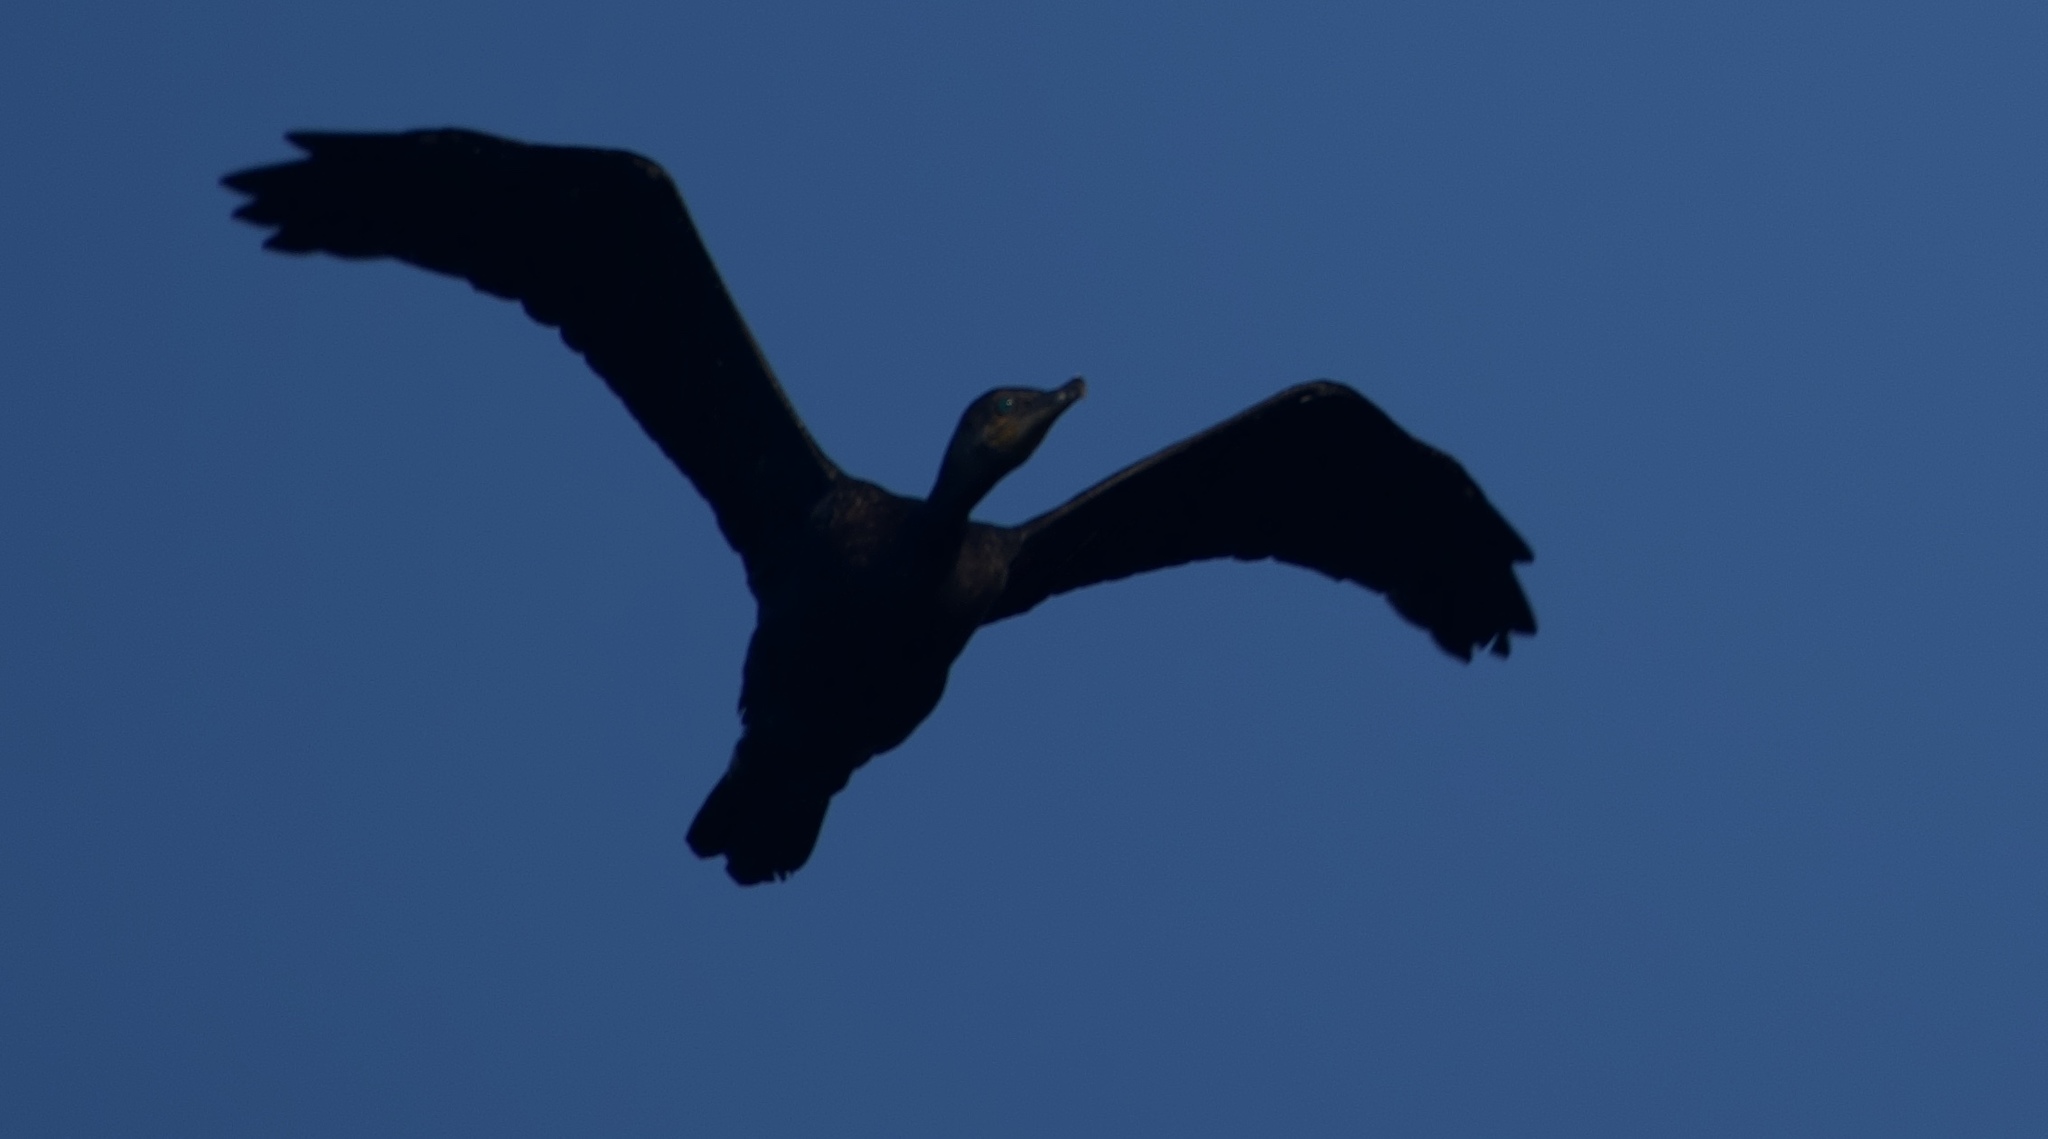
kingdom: Animalia
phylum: Chordata
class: Aves
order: Suliformes
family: Phalacrocoracidae
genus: Phalacrocorax
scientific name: Phalacrocorax brasilianus
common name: Neotropic cormorant
